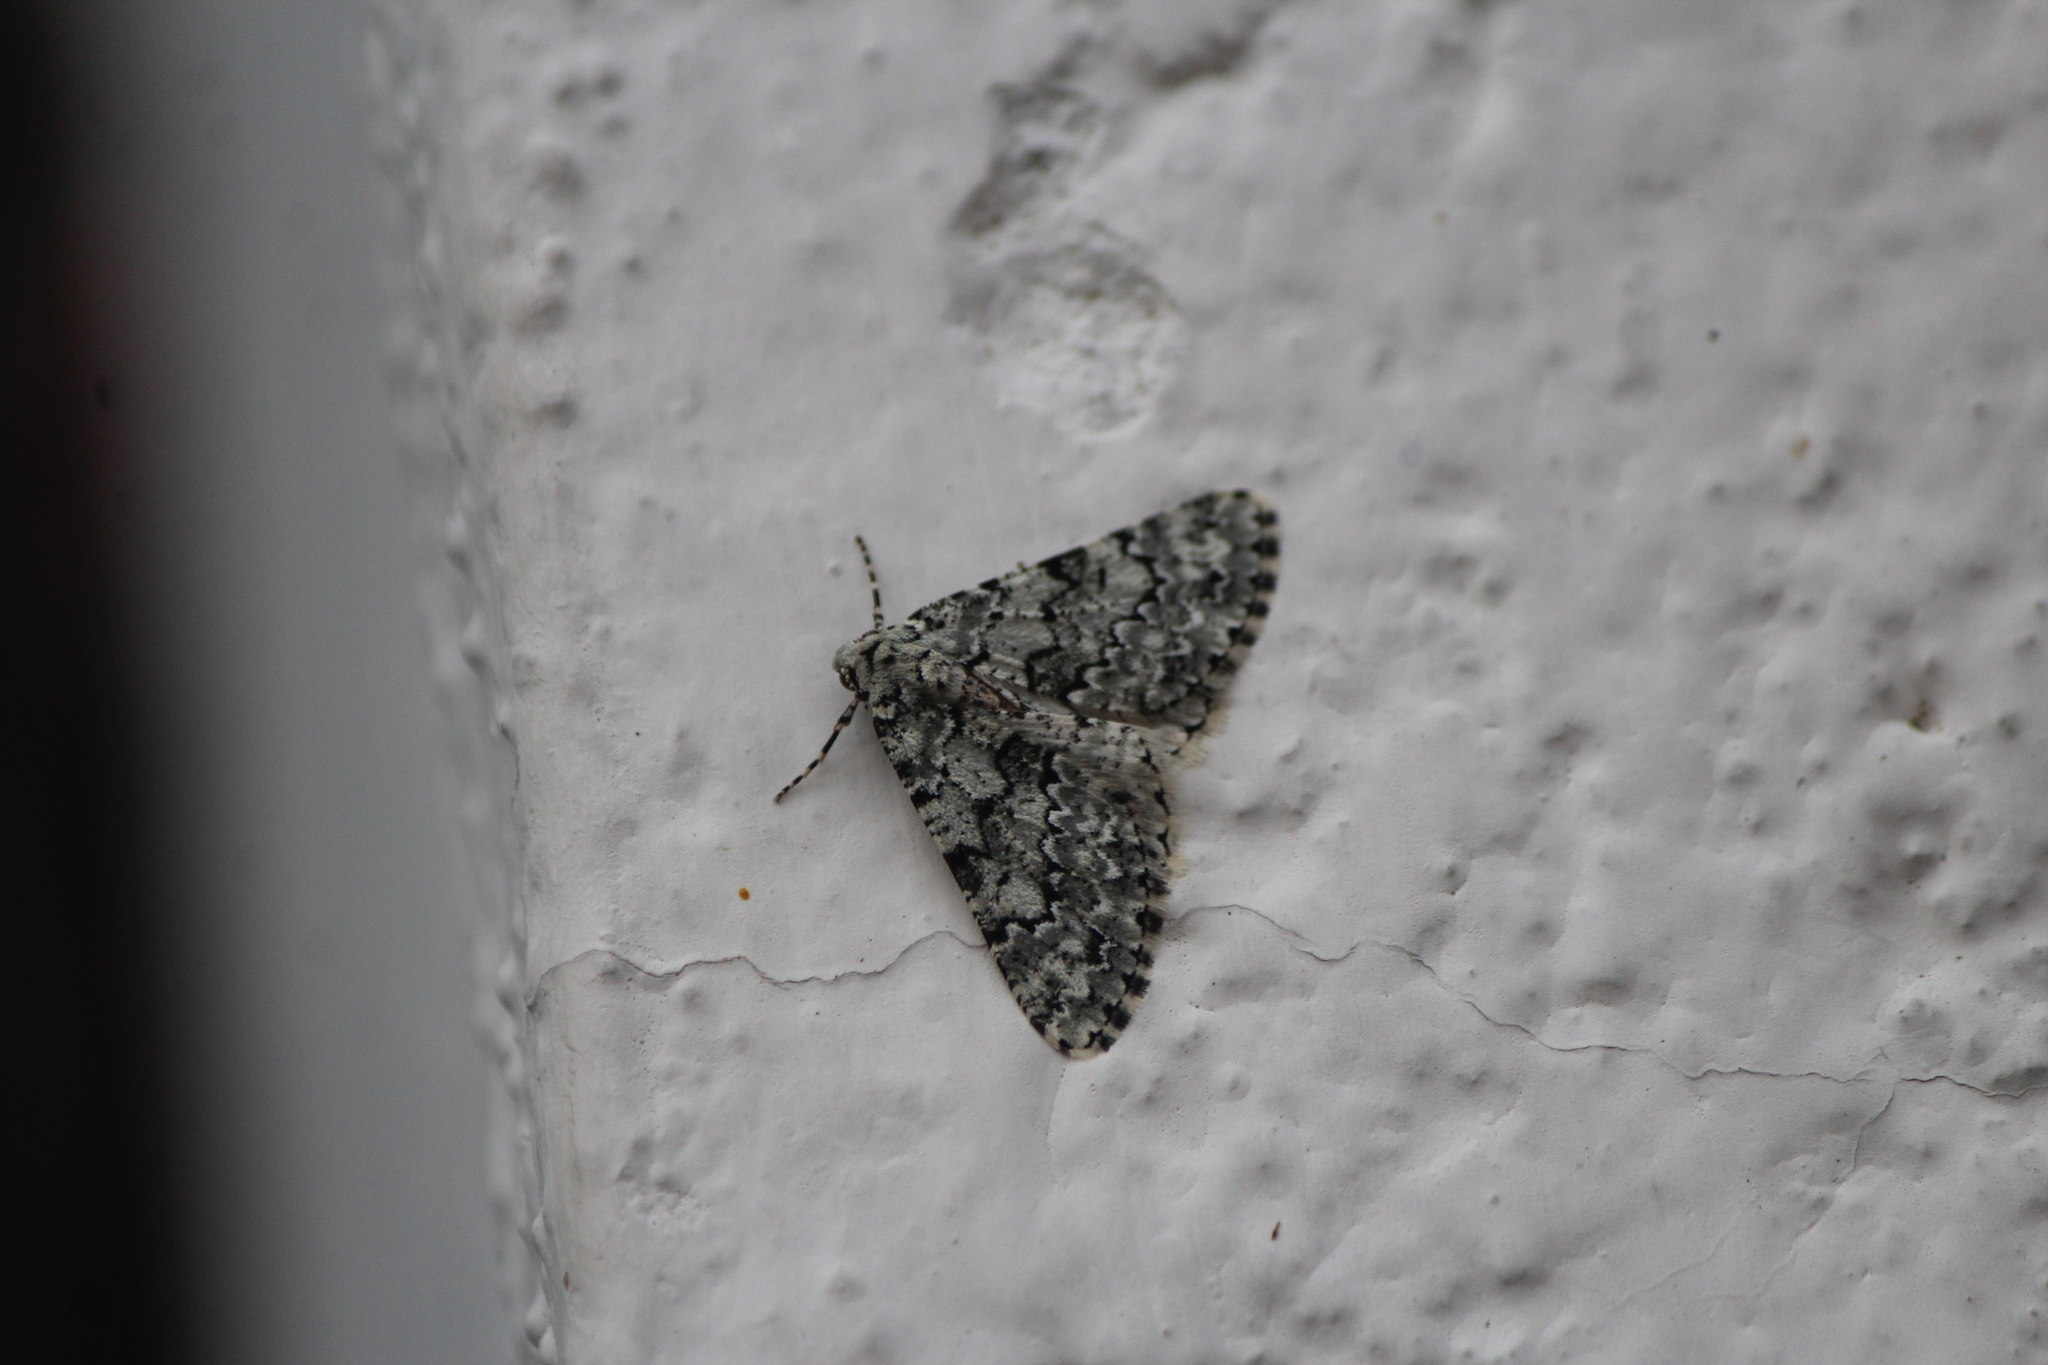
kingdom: Animalia
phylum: Arthropoda
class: Insecta
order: Lepidoptera
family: Geometridae
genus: Tracheops
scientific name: Tracheops bolteri
